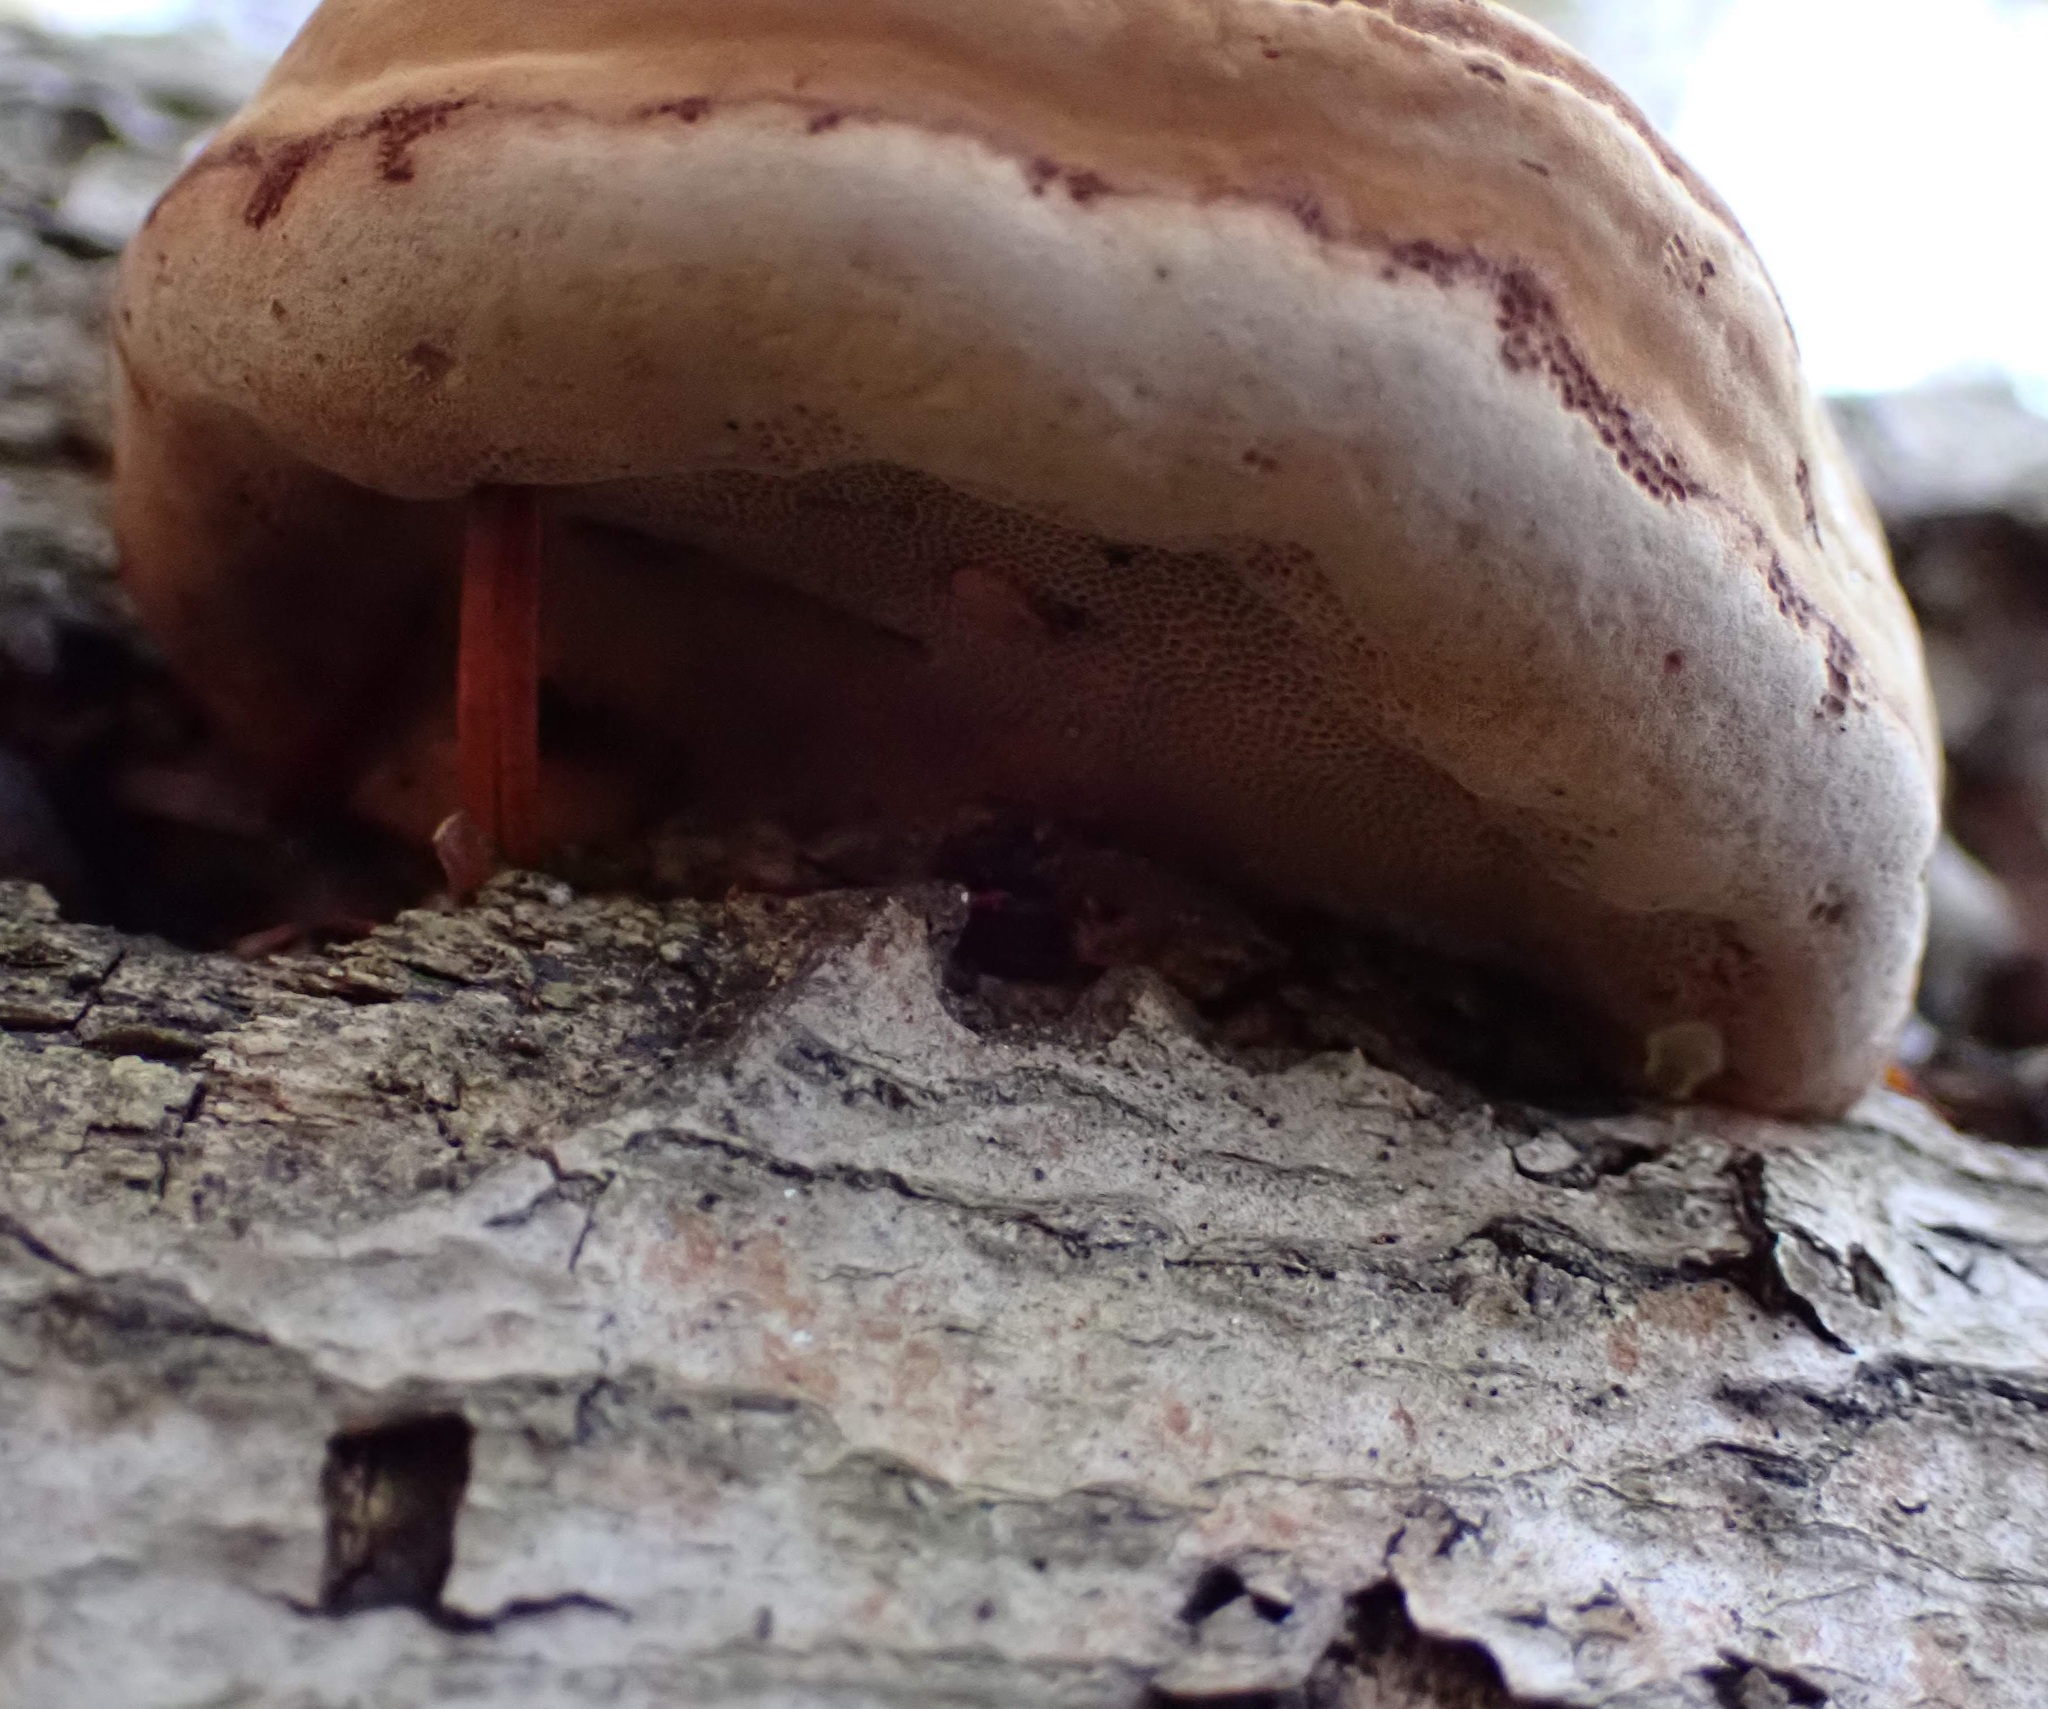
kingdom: Fungi
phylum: Basidiomycota
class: Agaricomycetes
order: Polyporales
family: Polyporaceae
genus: Fomes
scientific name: Fomes fomentarius
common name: Hoof fungus
